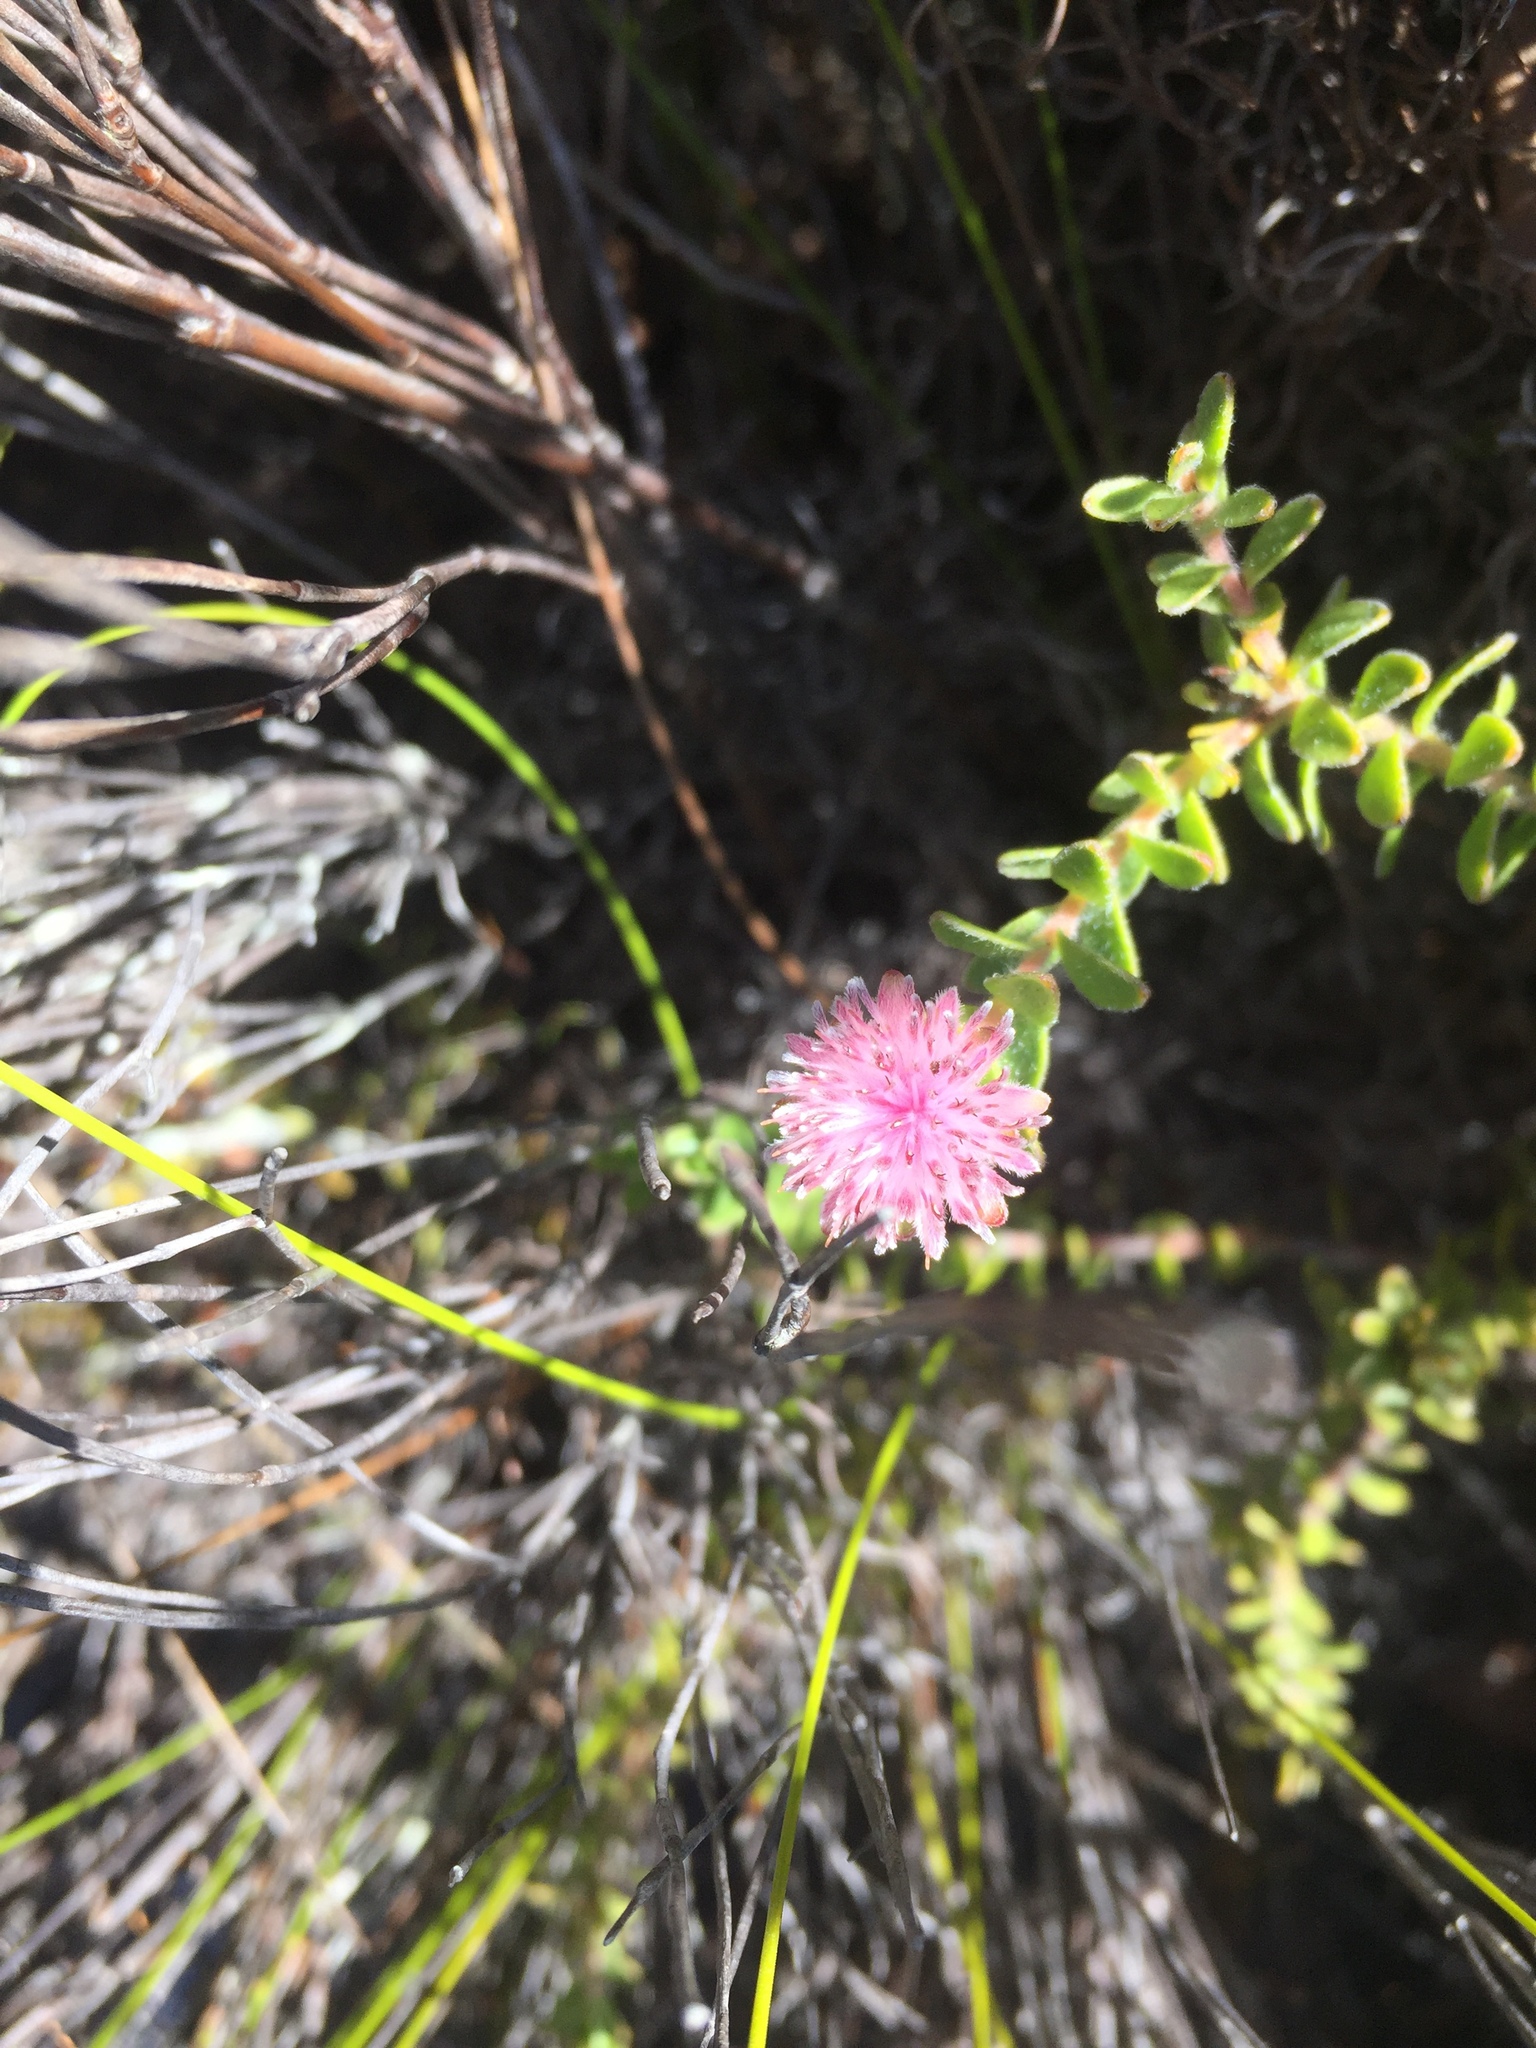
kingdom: Plantae
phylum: Tracheophyta
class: Magnoliopsida
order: Proteales
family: Proteaceae
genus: Diastella
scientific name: Diastella divaricata
